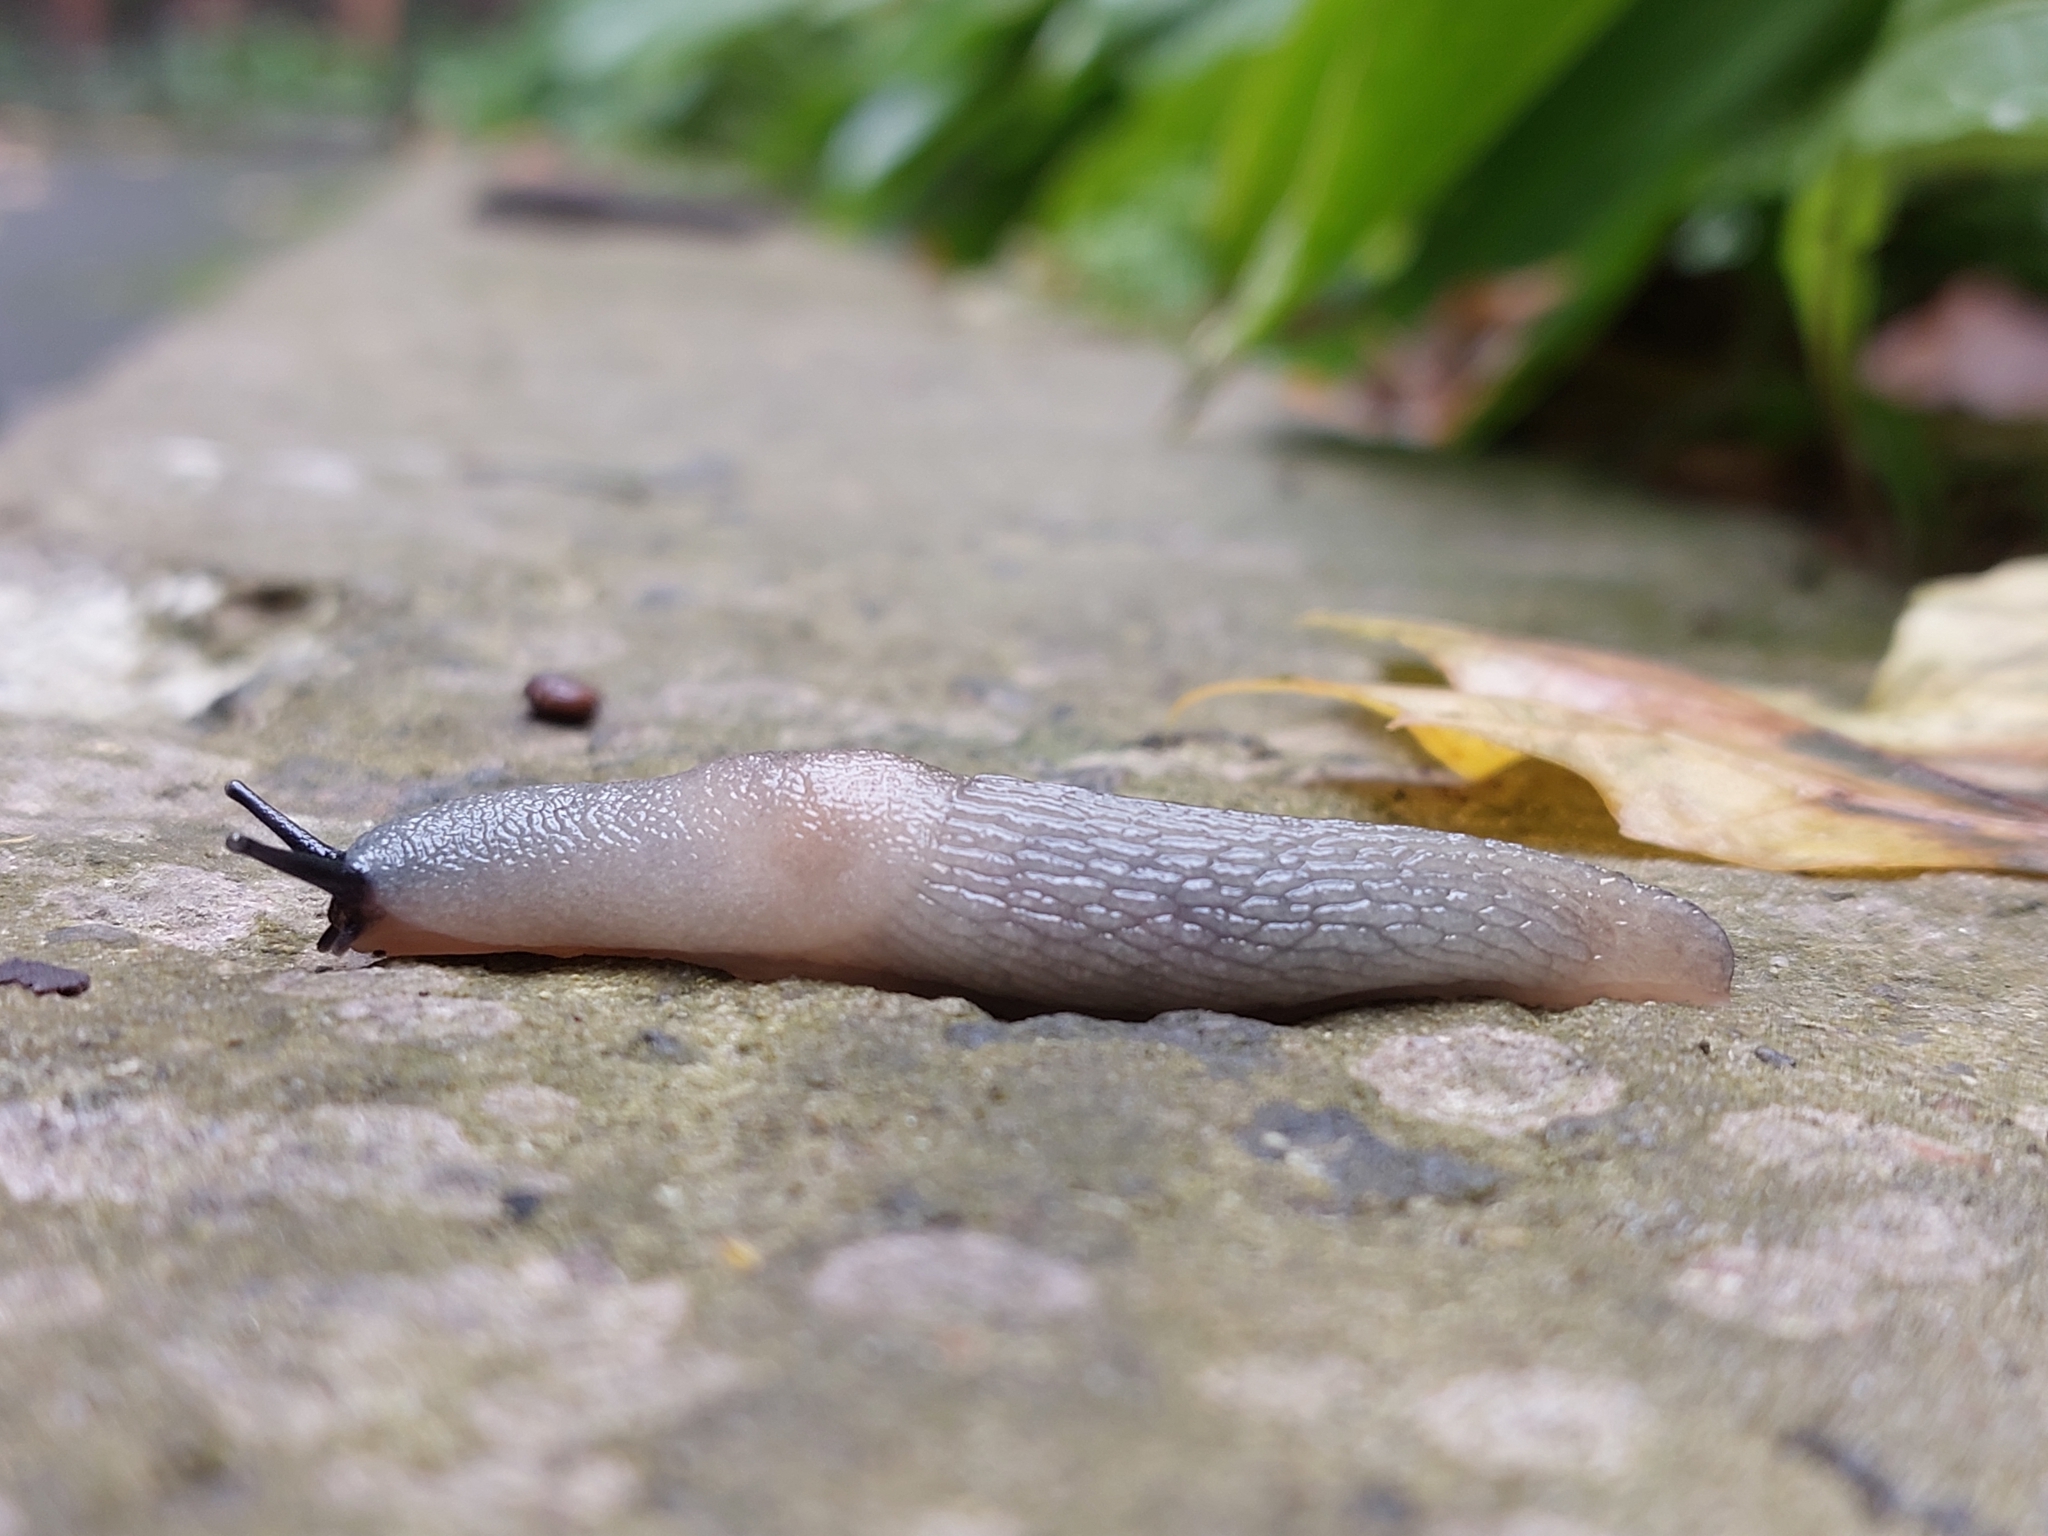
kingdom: Animalia
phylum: Mollusca
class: Gastropoda
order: Stylommatophora
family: Agriolimacidae
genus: Krynickillus
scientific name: Krynickillus melanocephalus
